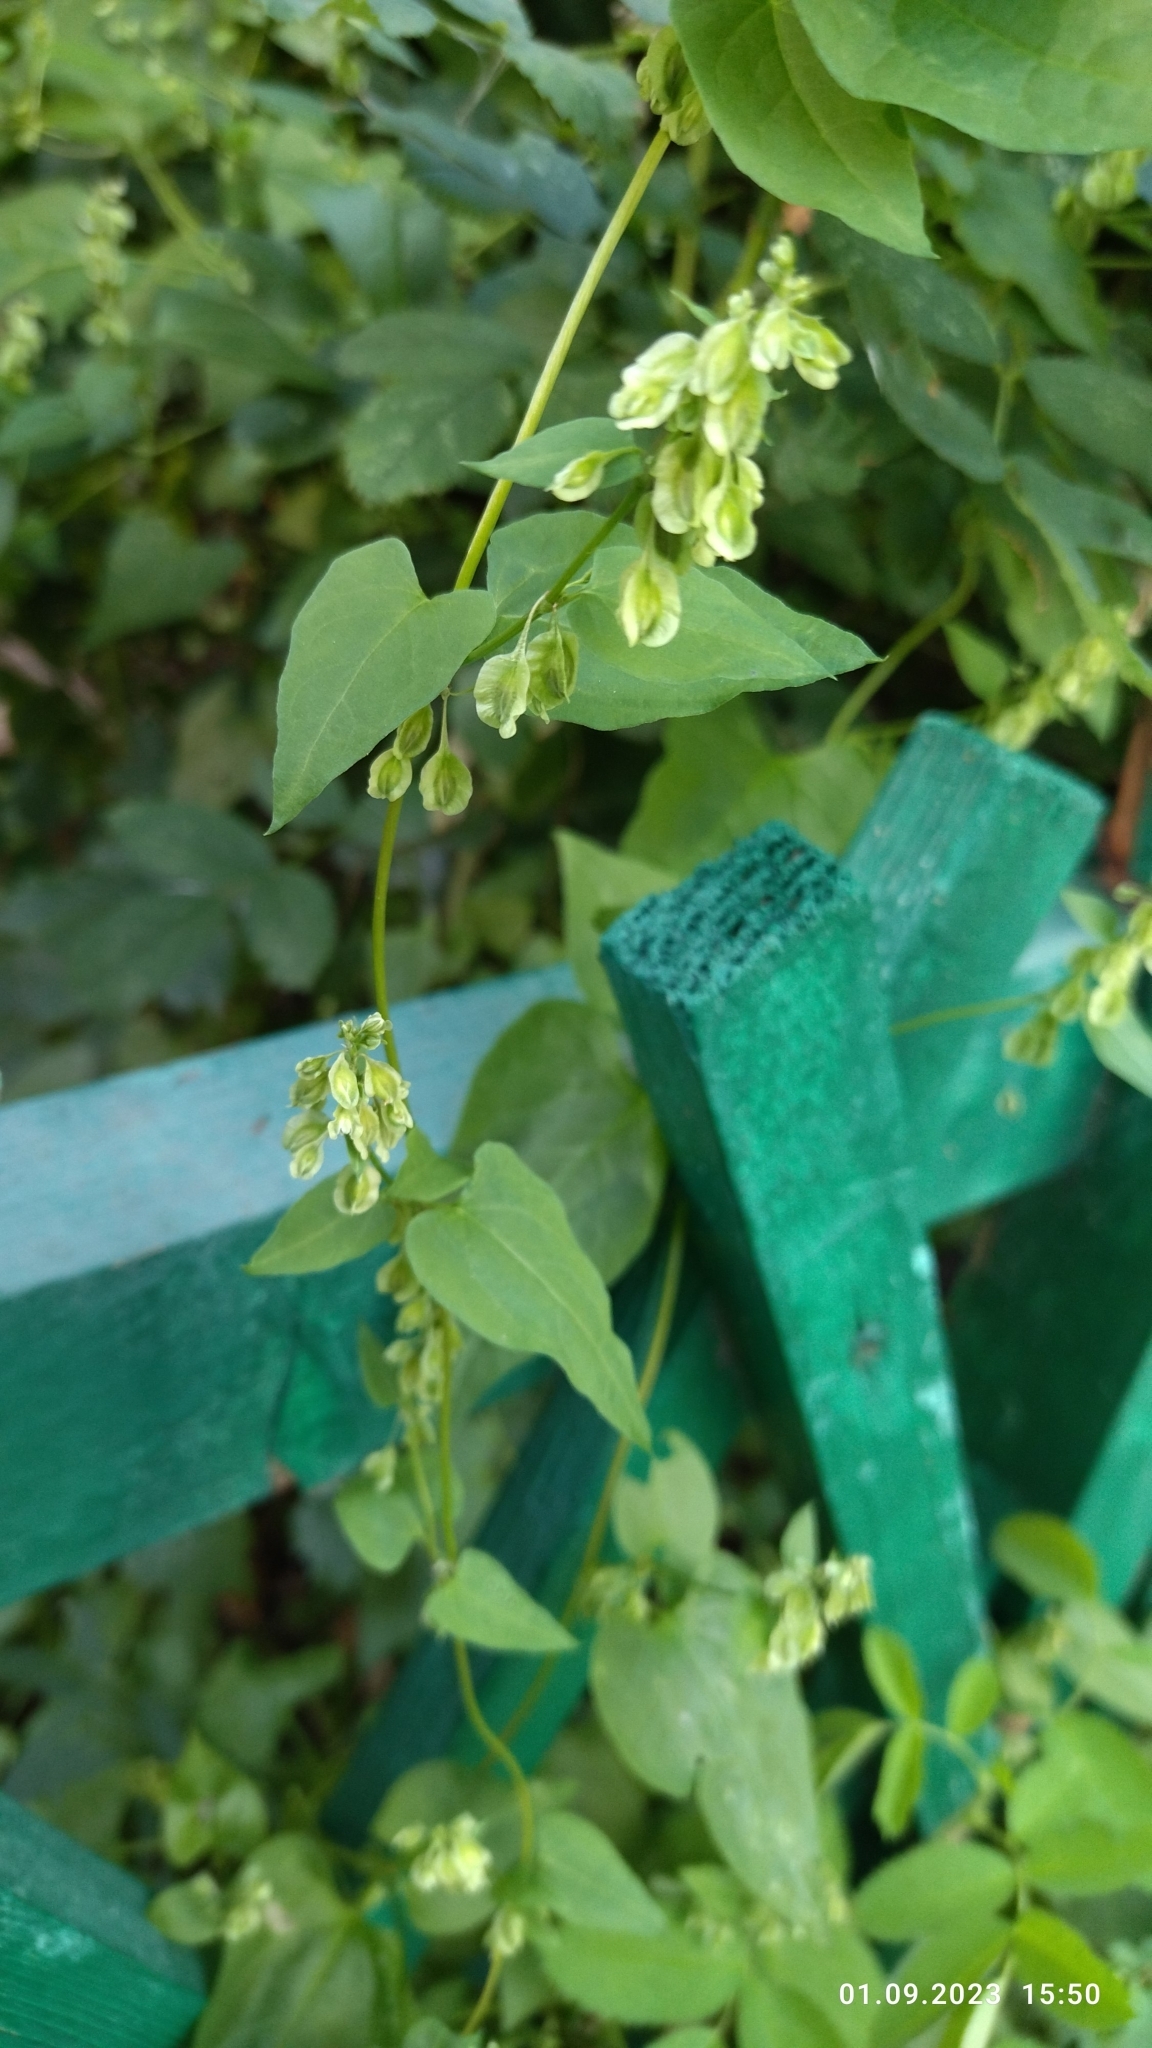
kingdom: Plantae
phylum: Tracheophyta
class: Magnoliopsida
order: Caryophyllales
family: Polygonaceae
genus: Fallopia
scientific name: Fallopia dumetorum
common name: Copse-bindweed
